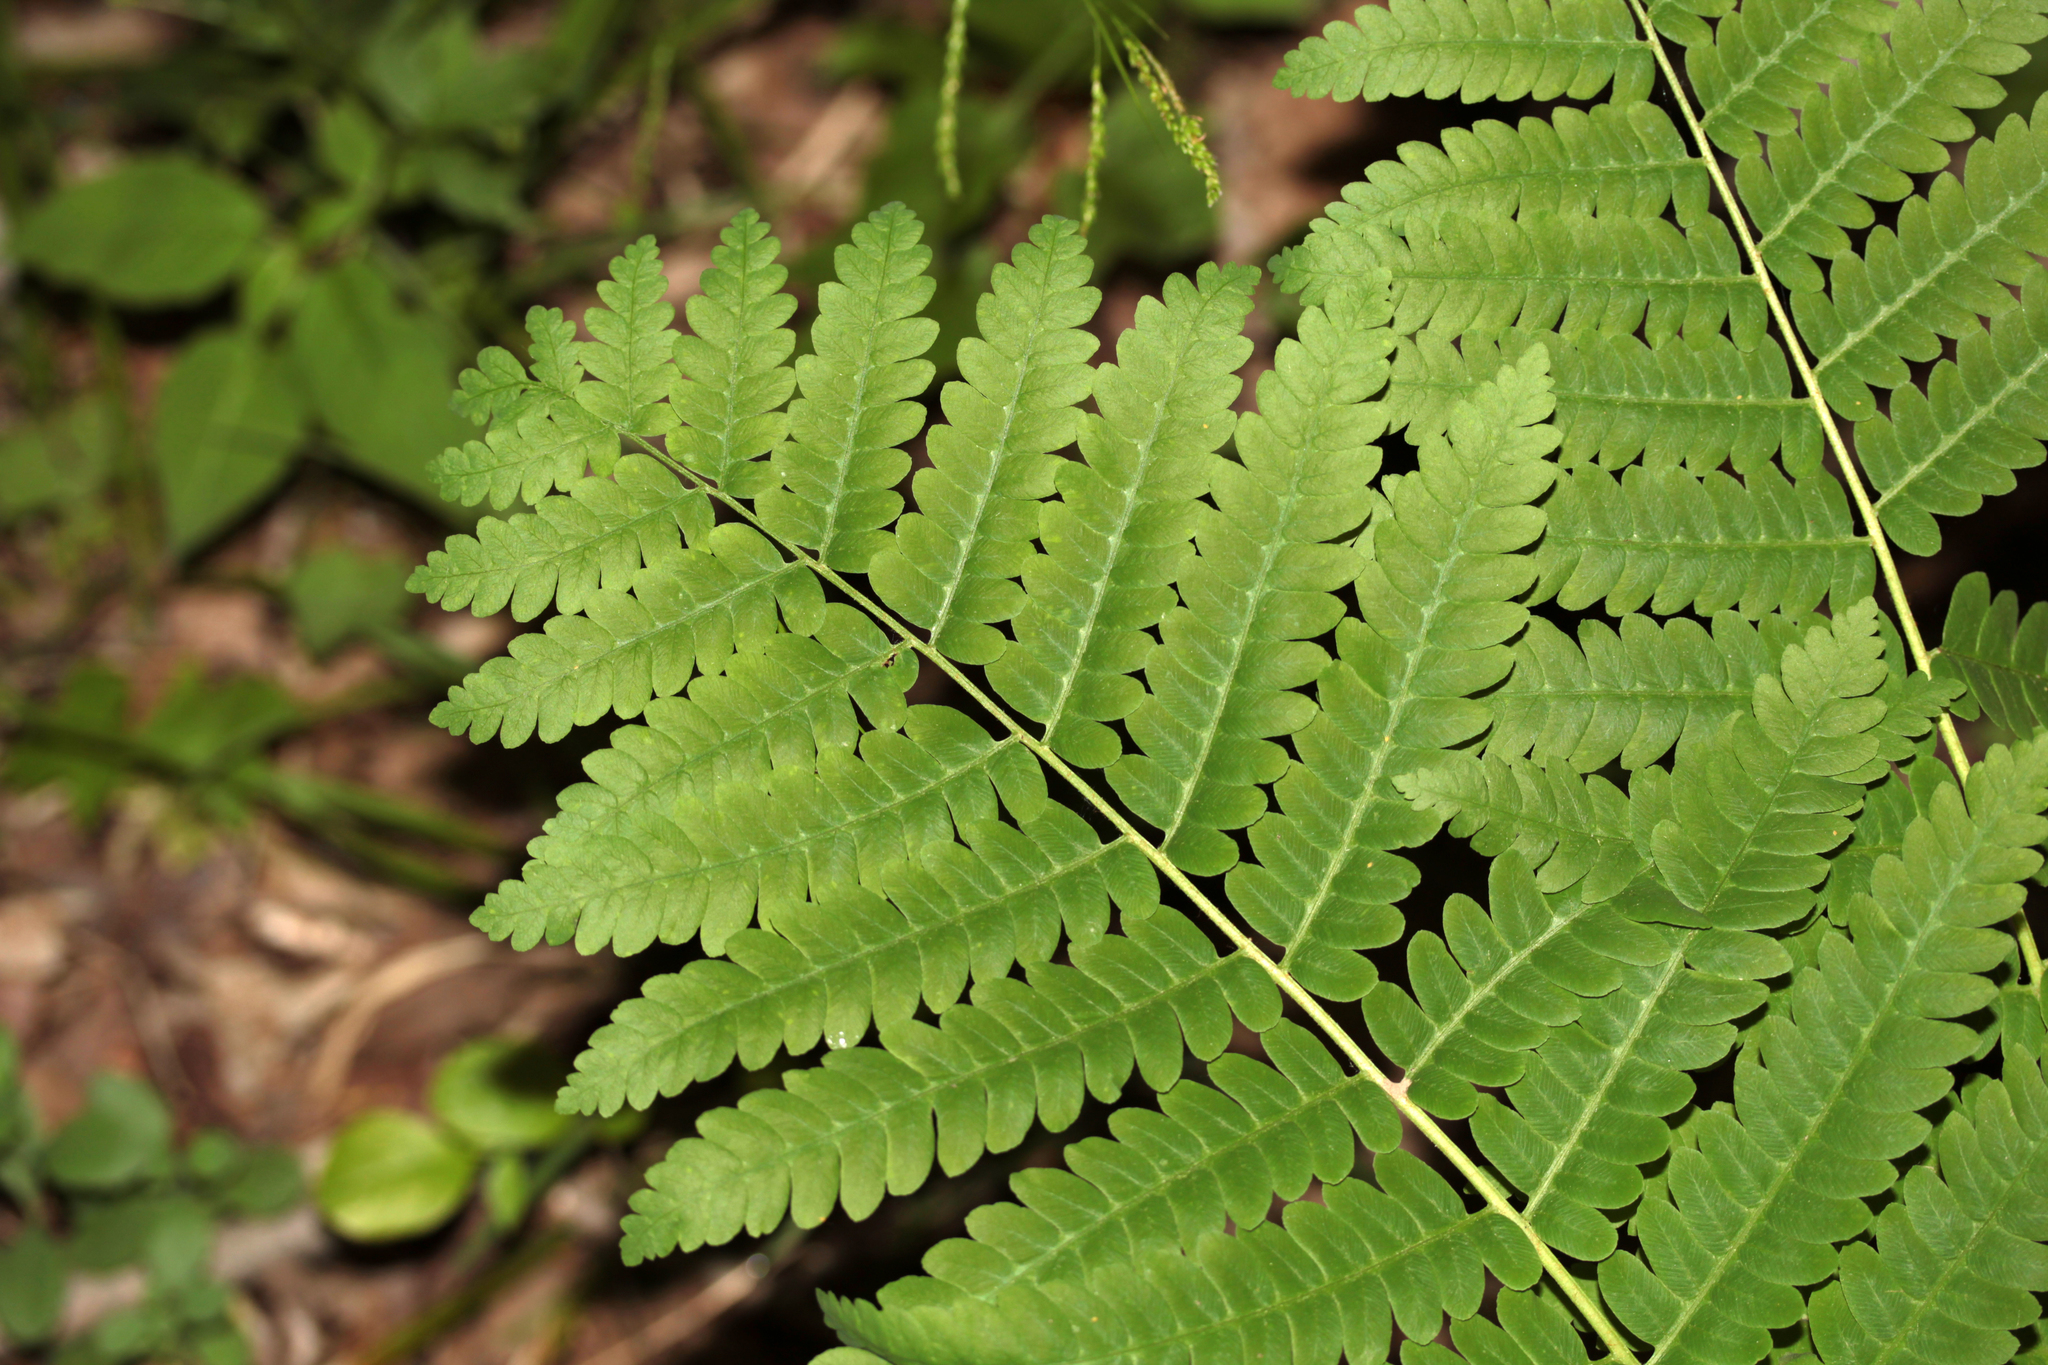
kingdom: Plantae
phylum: Tracheophyta
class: Polypodiopsida
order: Osmundales
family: Osmundaceae
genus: Claytosmunda
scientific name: Claytosmunda claytoniana
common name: Clayton's fern
